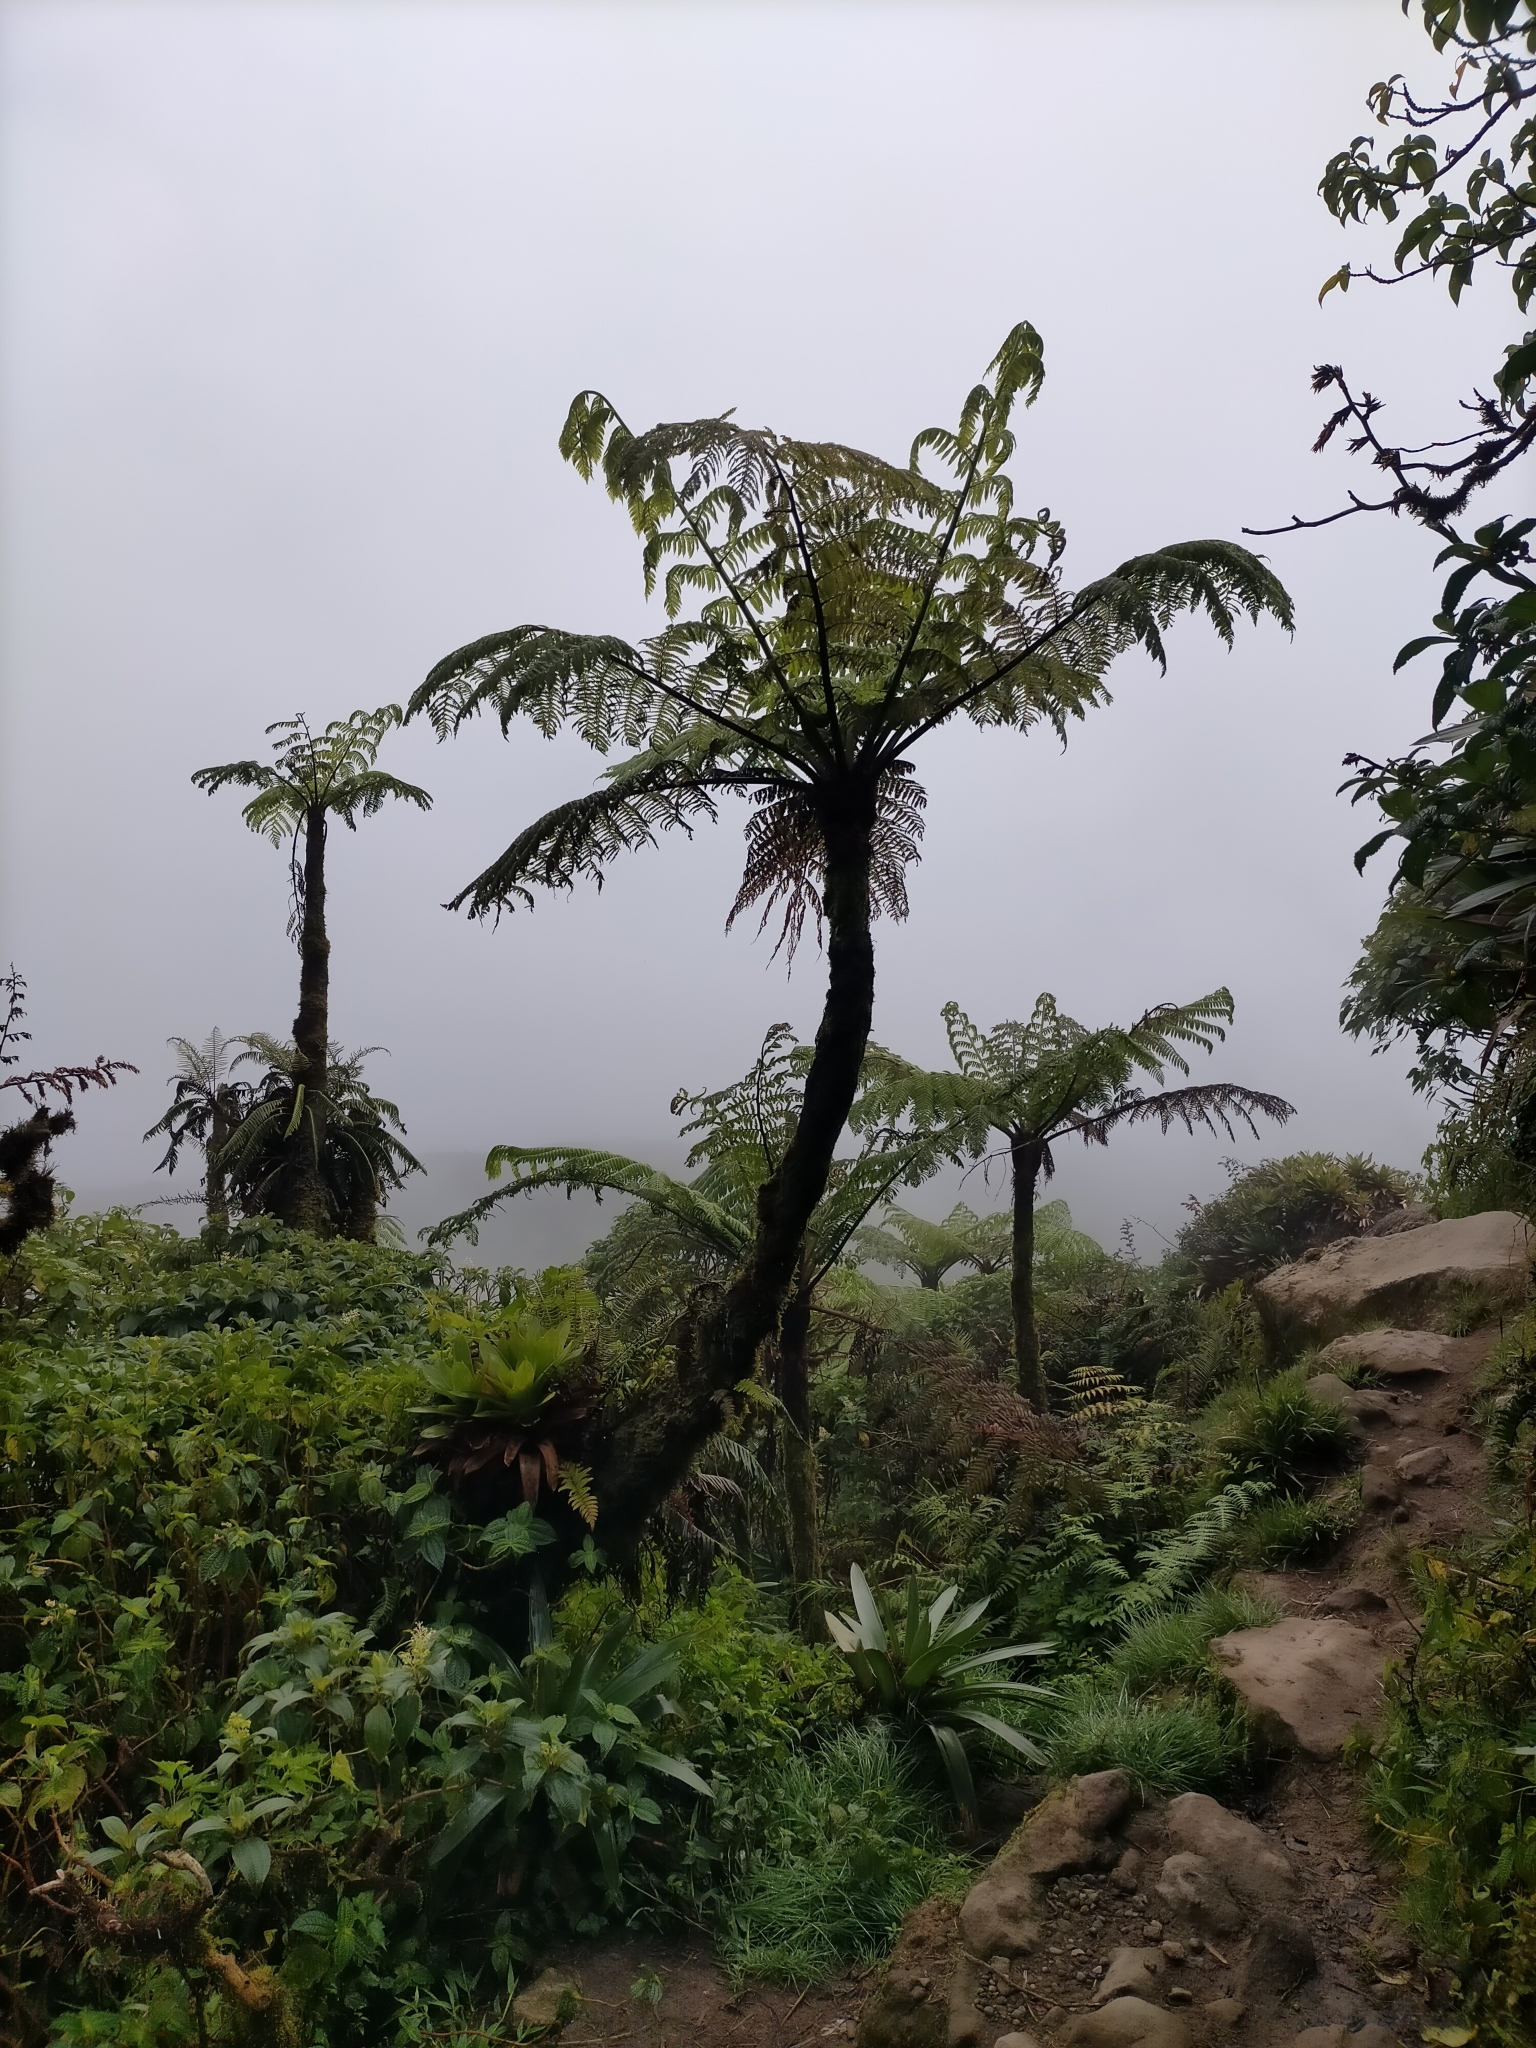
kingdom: Plantae
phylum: Tracheophyta
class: Polypodiopsida
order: Cyatheales
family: Cyatheaceae
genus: Cyathea
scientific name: Cyathea arborea
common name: West indian treefern
